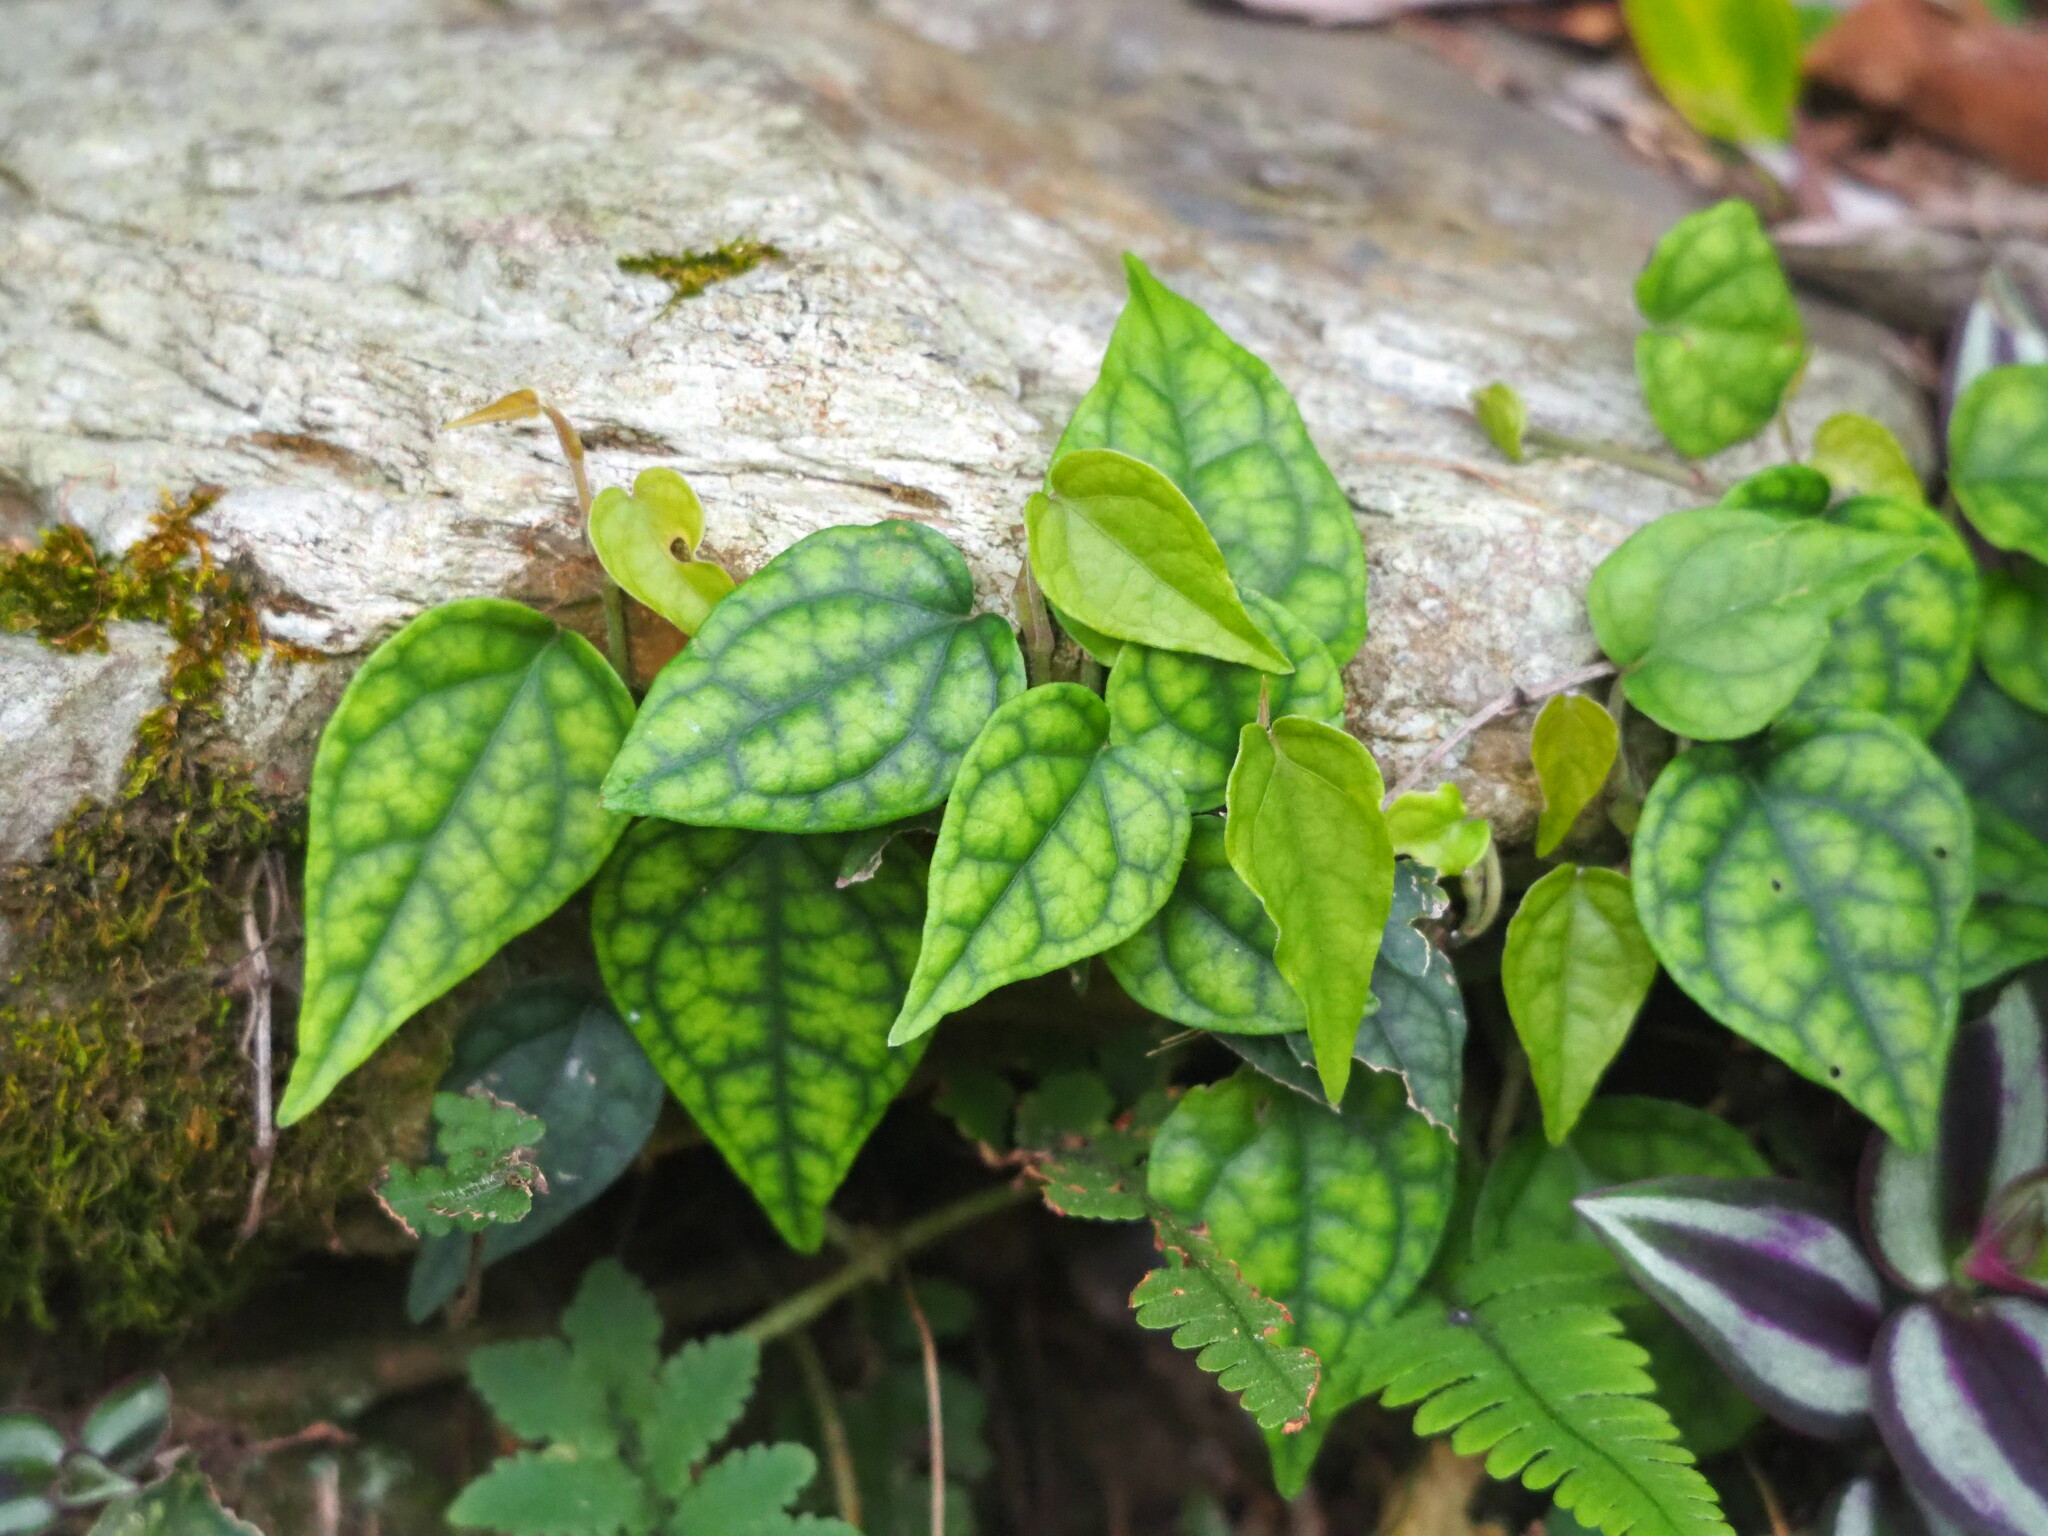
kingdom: Plantae
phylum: Tracheophyta
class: Magnoliopsida
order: Piperales
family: Piperaceae
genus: Piper
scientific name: Piper kadsura
